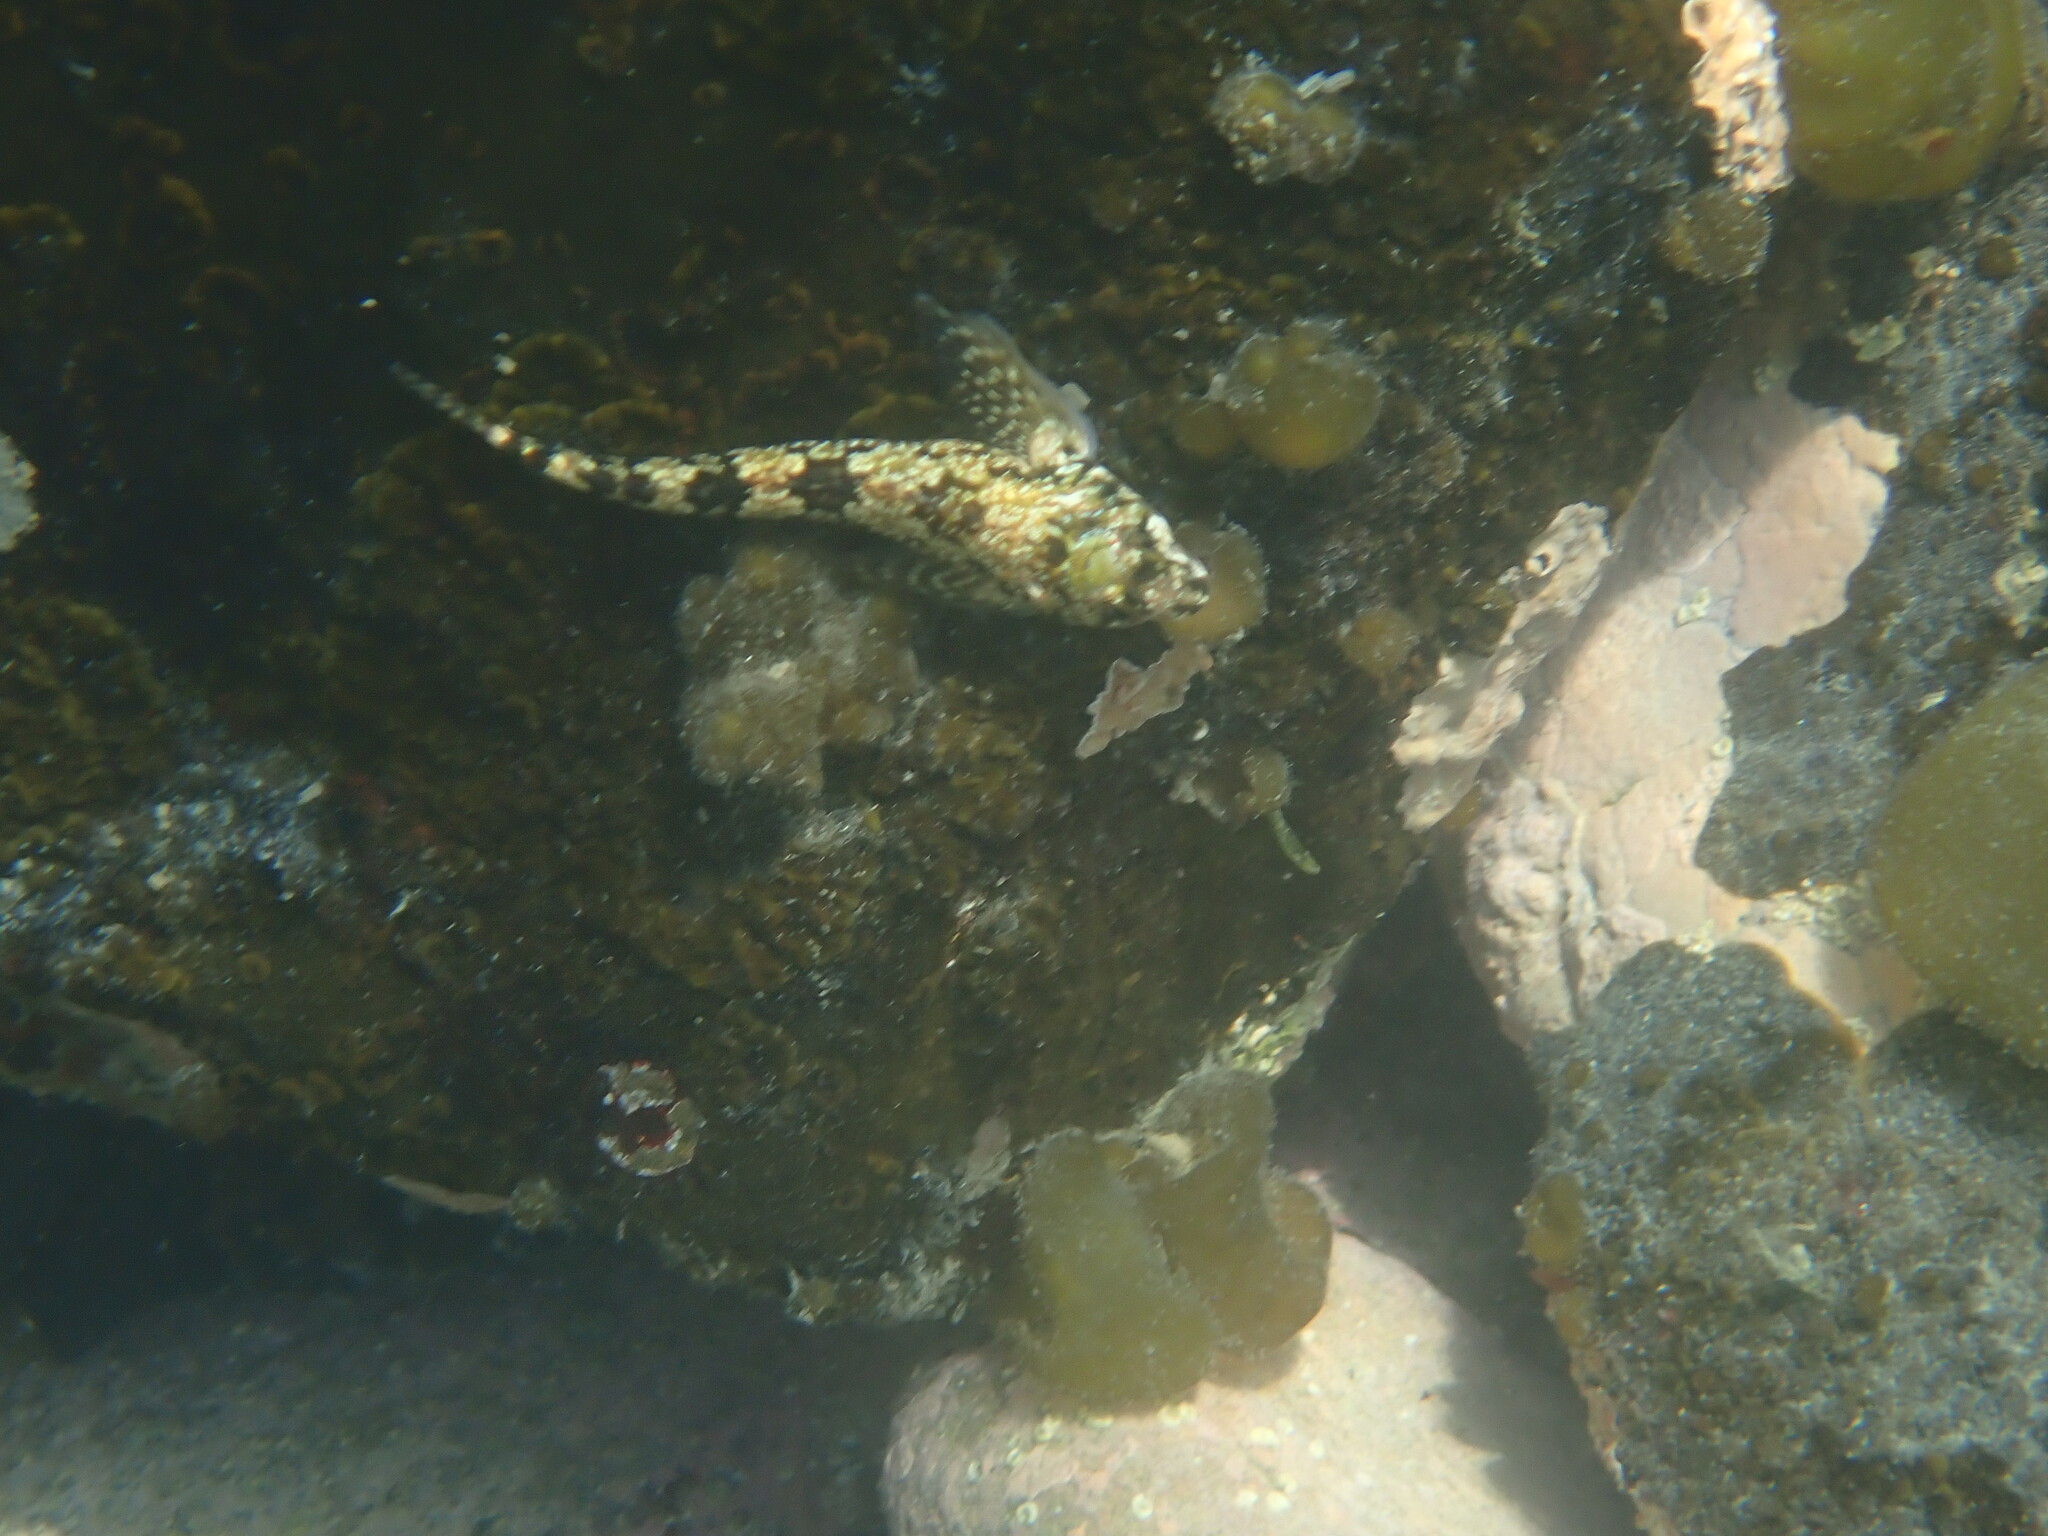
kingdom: Animalia
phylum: Chordata
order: Perciformes
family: Tripterygiidae
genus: Bellapiscis
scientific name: Bellapiscis lesleyae
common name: Mottled twister
